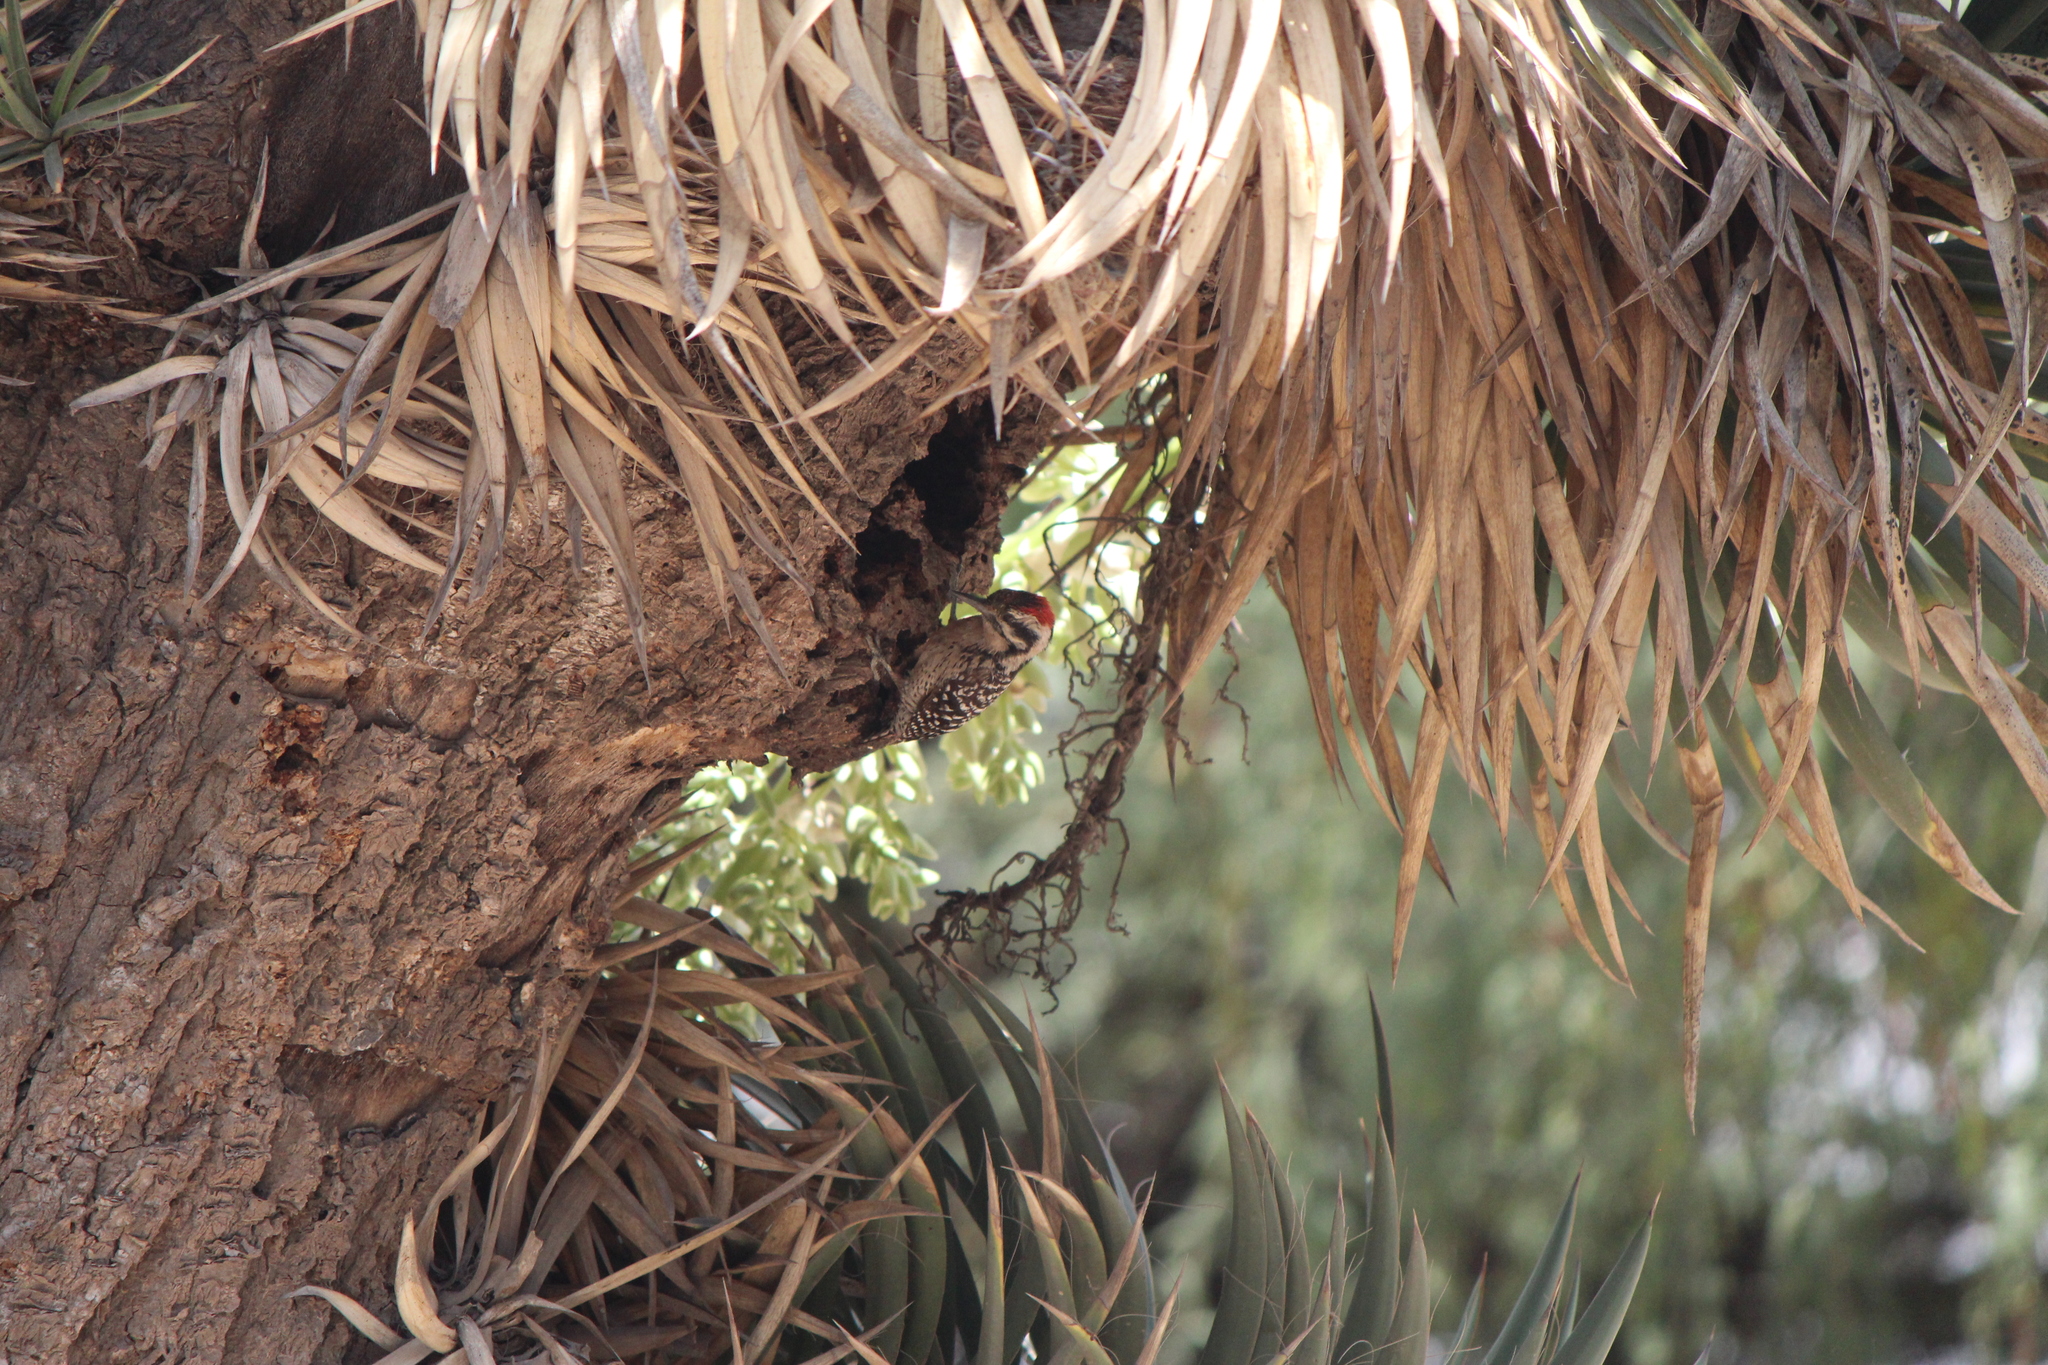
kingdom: Animalia
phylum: Chordata
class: Aves
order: Piciformes
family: Picidae
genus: Dryobates
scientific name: Dryobates scalaris
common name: Ladder-backed woodpecker
